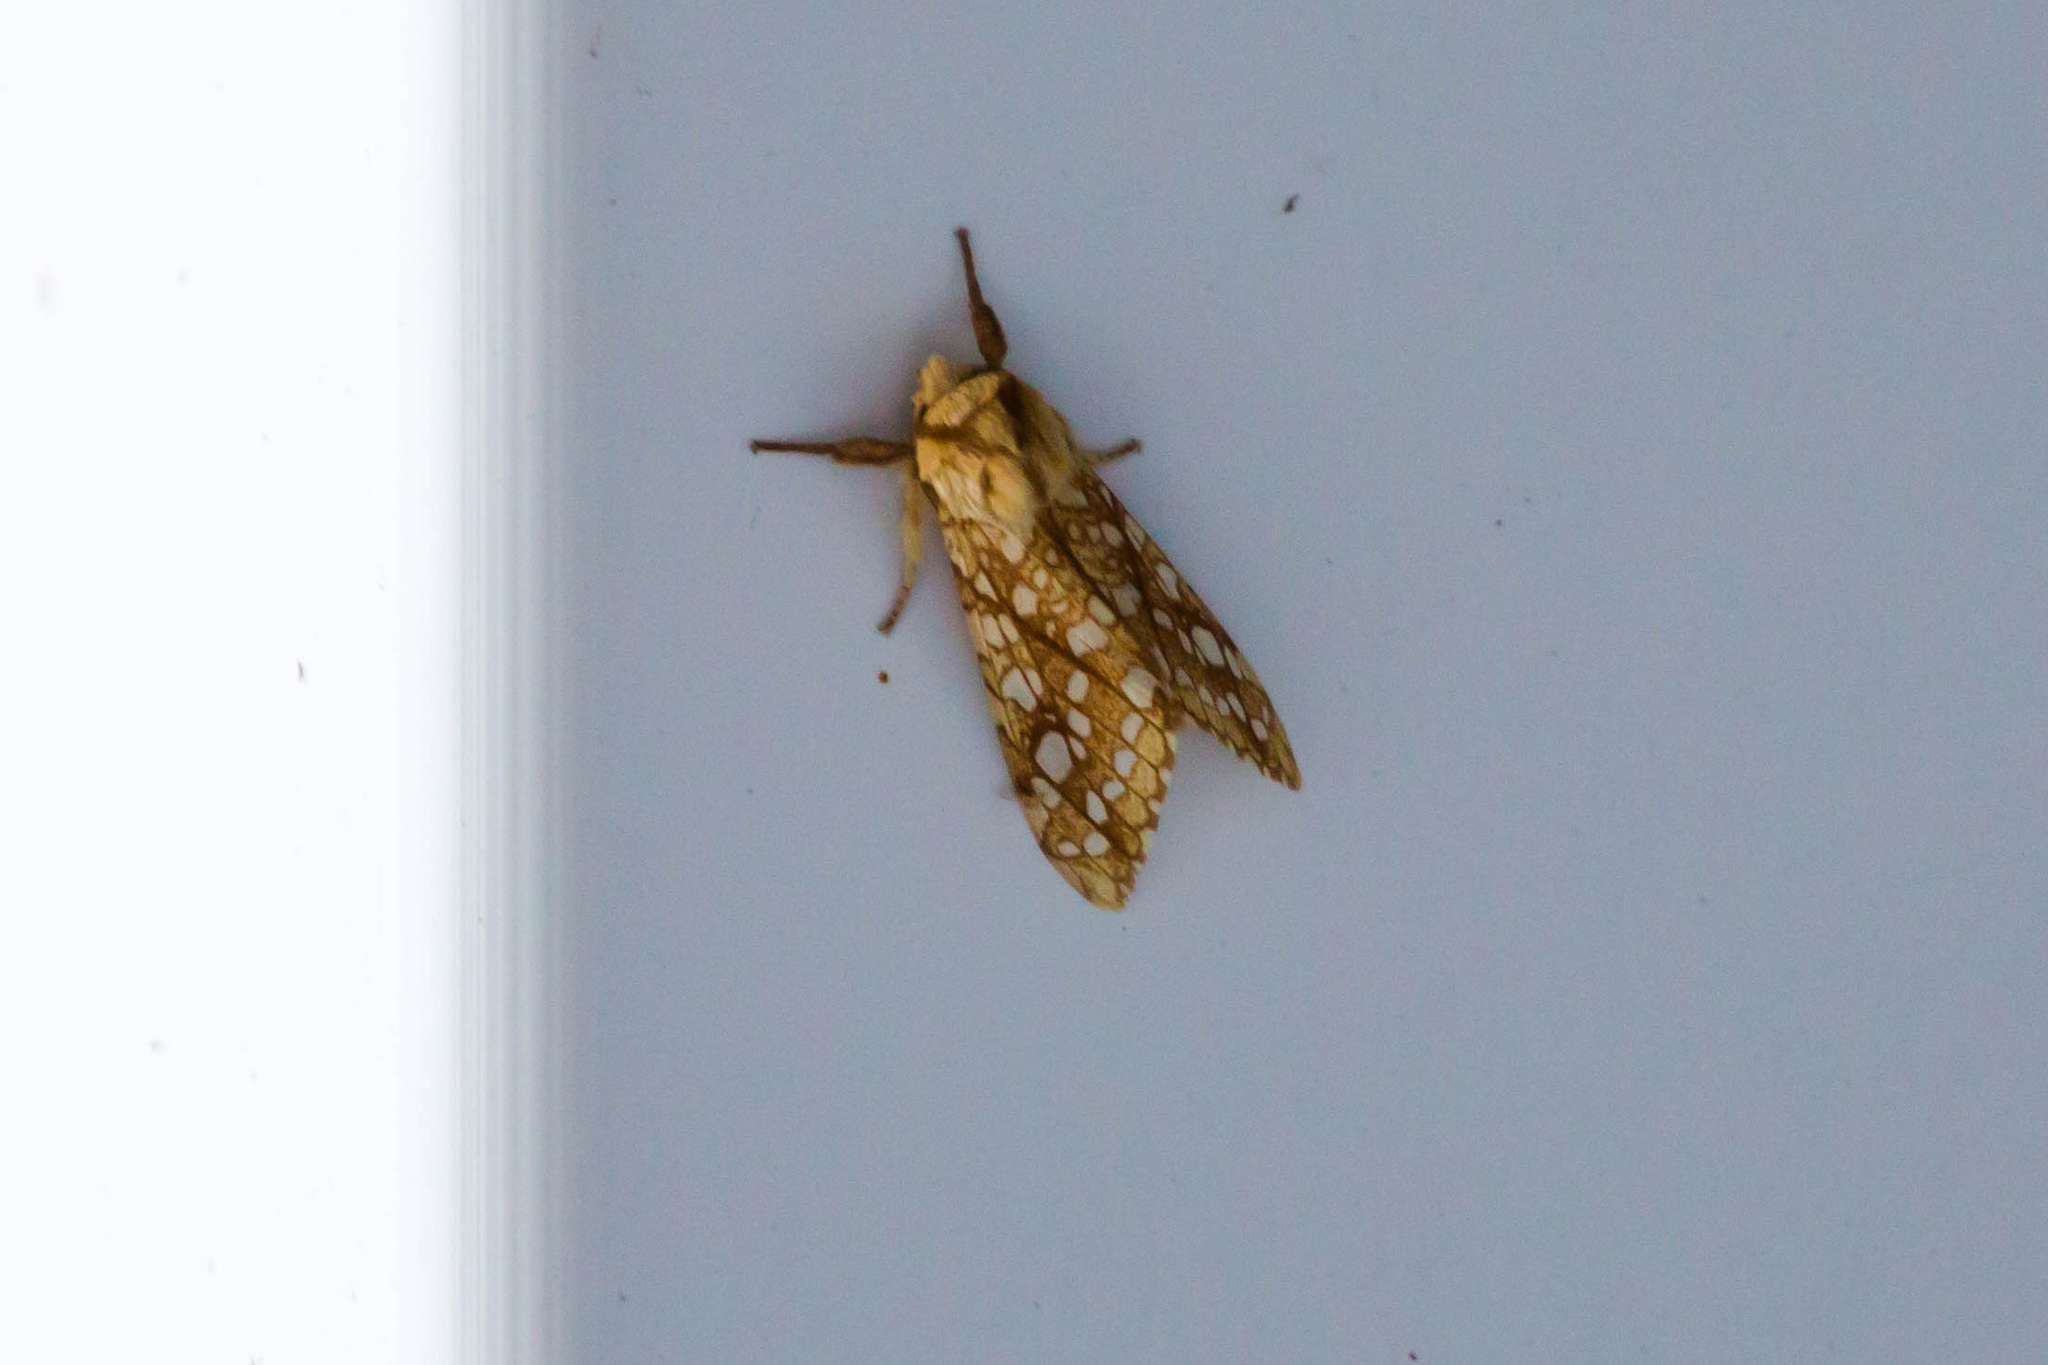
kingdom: Animalia
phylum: Arthropoda
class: Insecta
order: Lepidoptera
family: Erebidae
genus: Lophocampa
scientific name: Lophocampa caryae
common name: Hickory tussock moth
